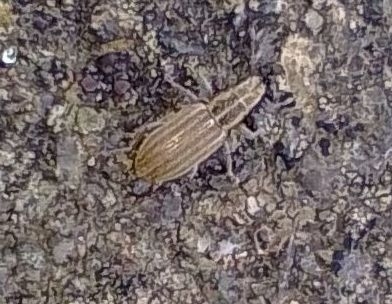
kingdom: Animalia
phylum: Arthropoda
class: Insecta
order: Coleoptera
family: Curculionidae
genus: Sitona
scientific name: Sitona lineatus
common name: Weevil
